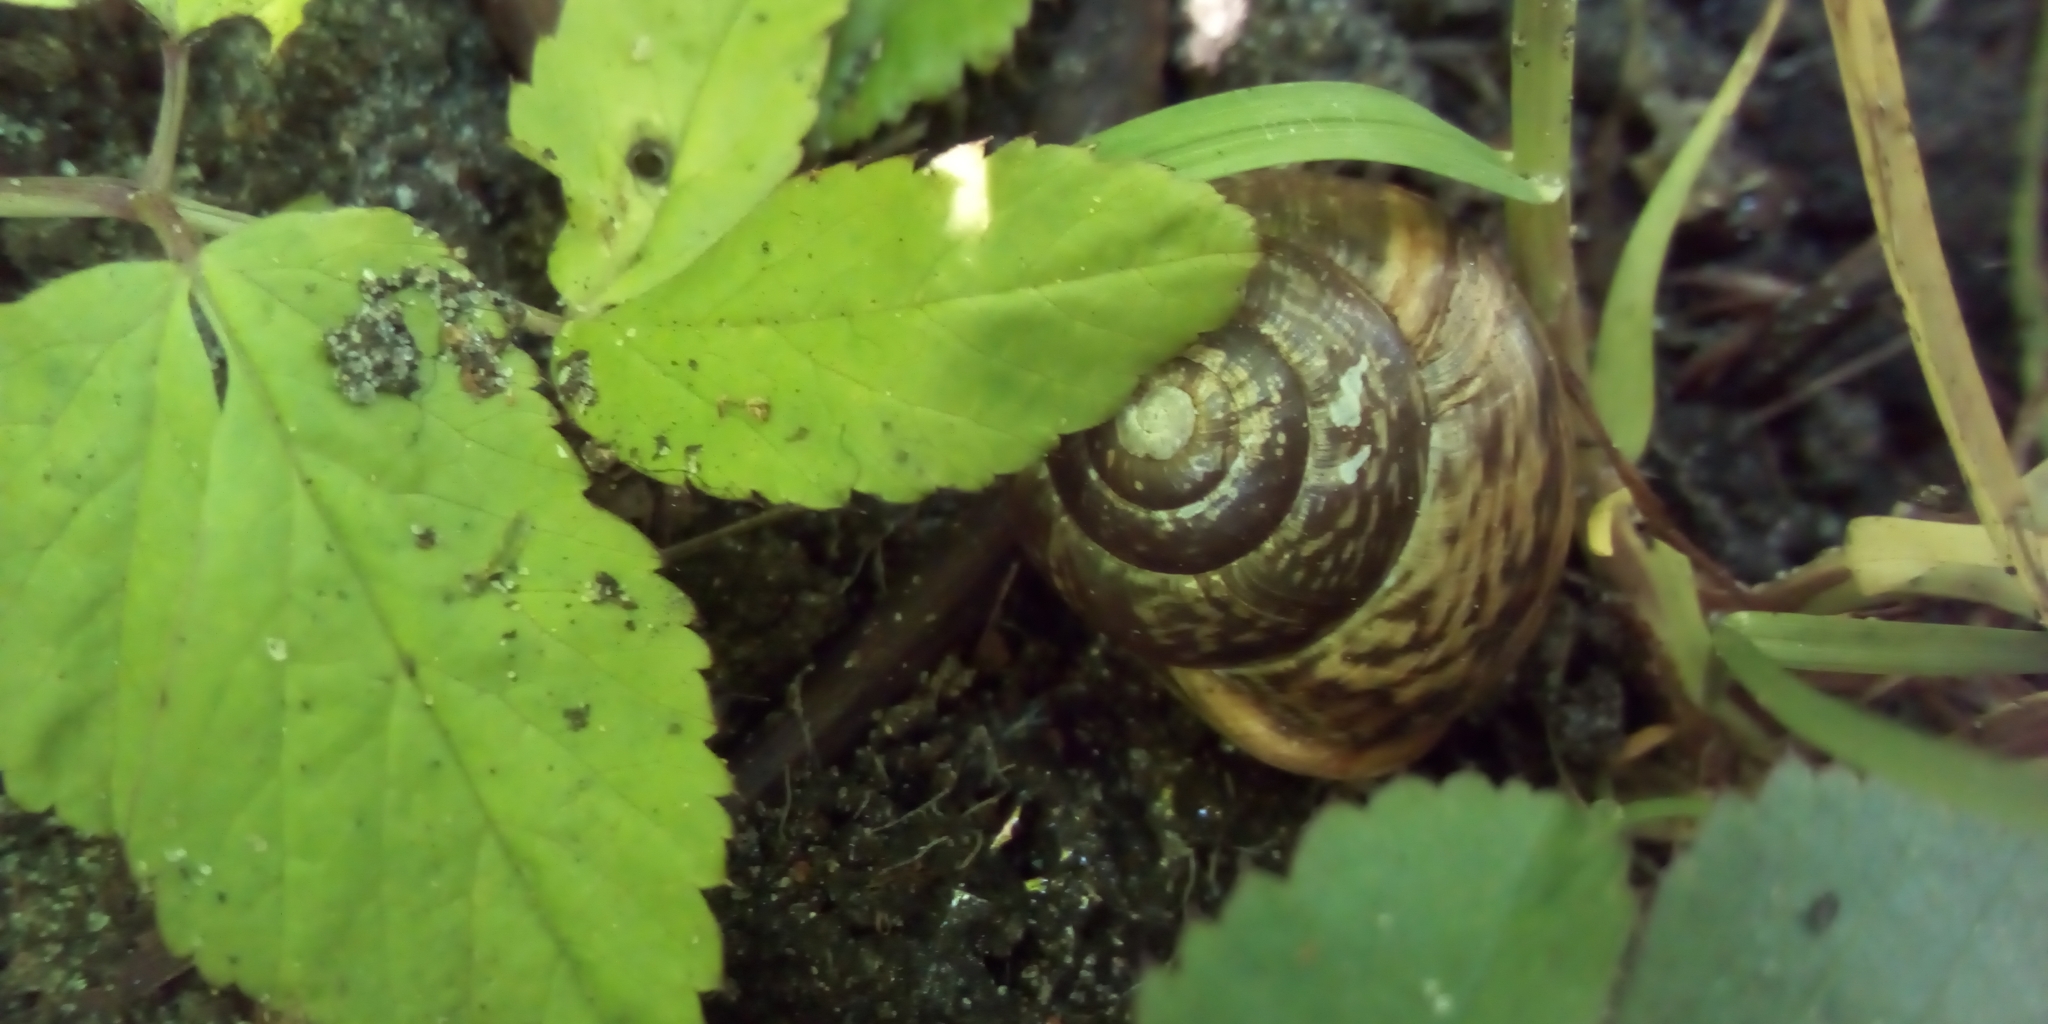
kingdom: Animalia
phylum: Mollusca
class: Gastropoda
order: Stylommatophora
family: Helicidae
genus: Arianta
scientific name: Arianta arbustorum
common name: Copse snail
